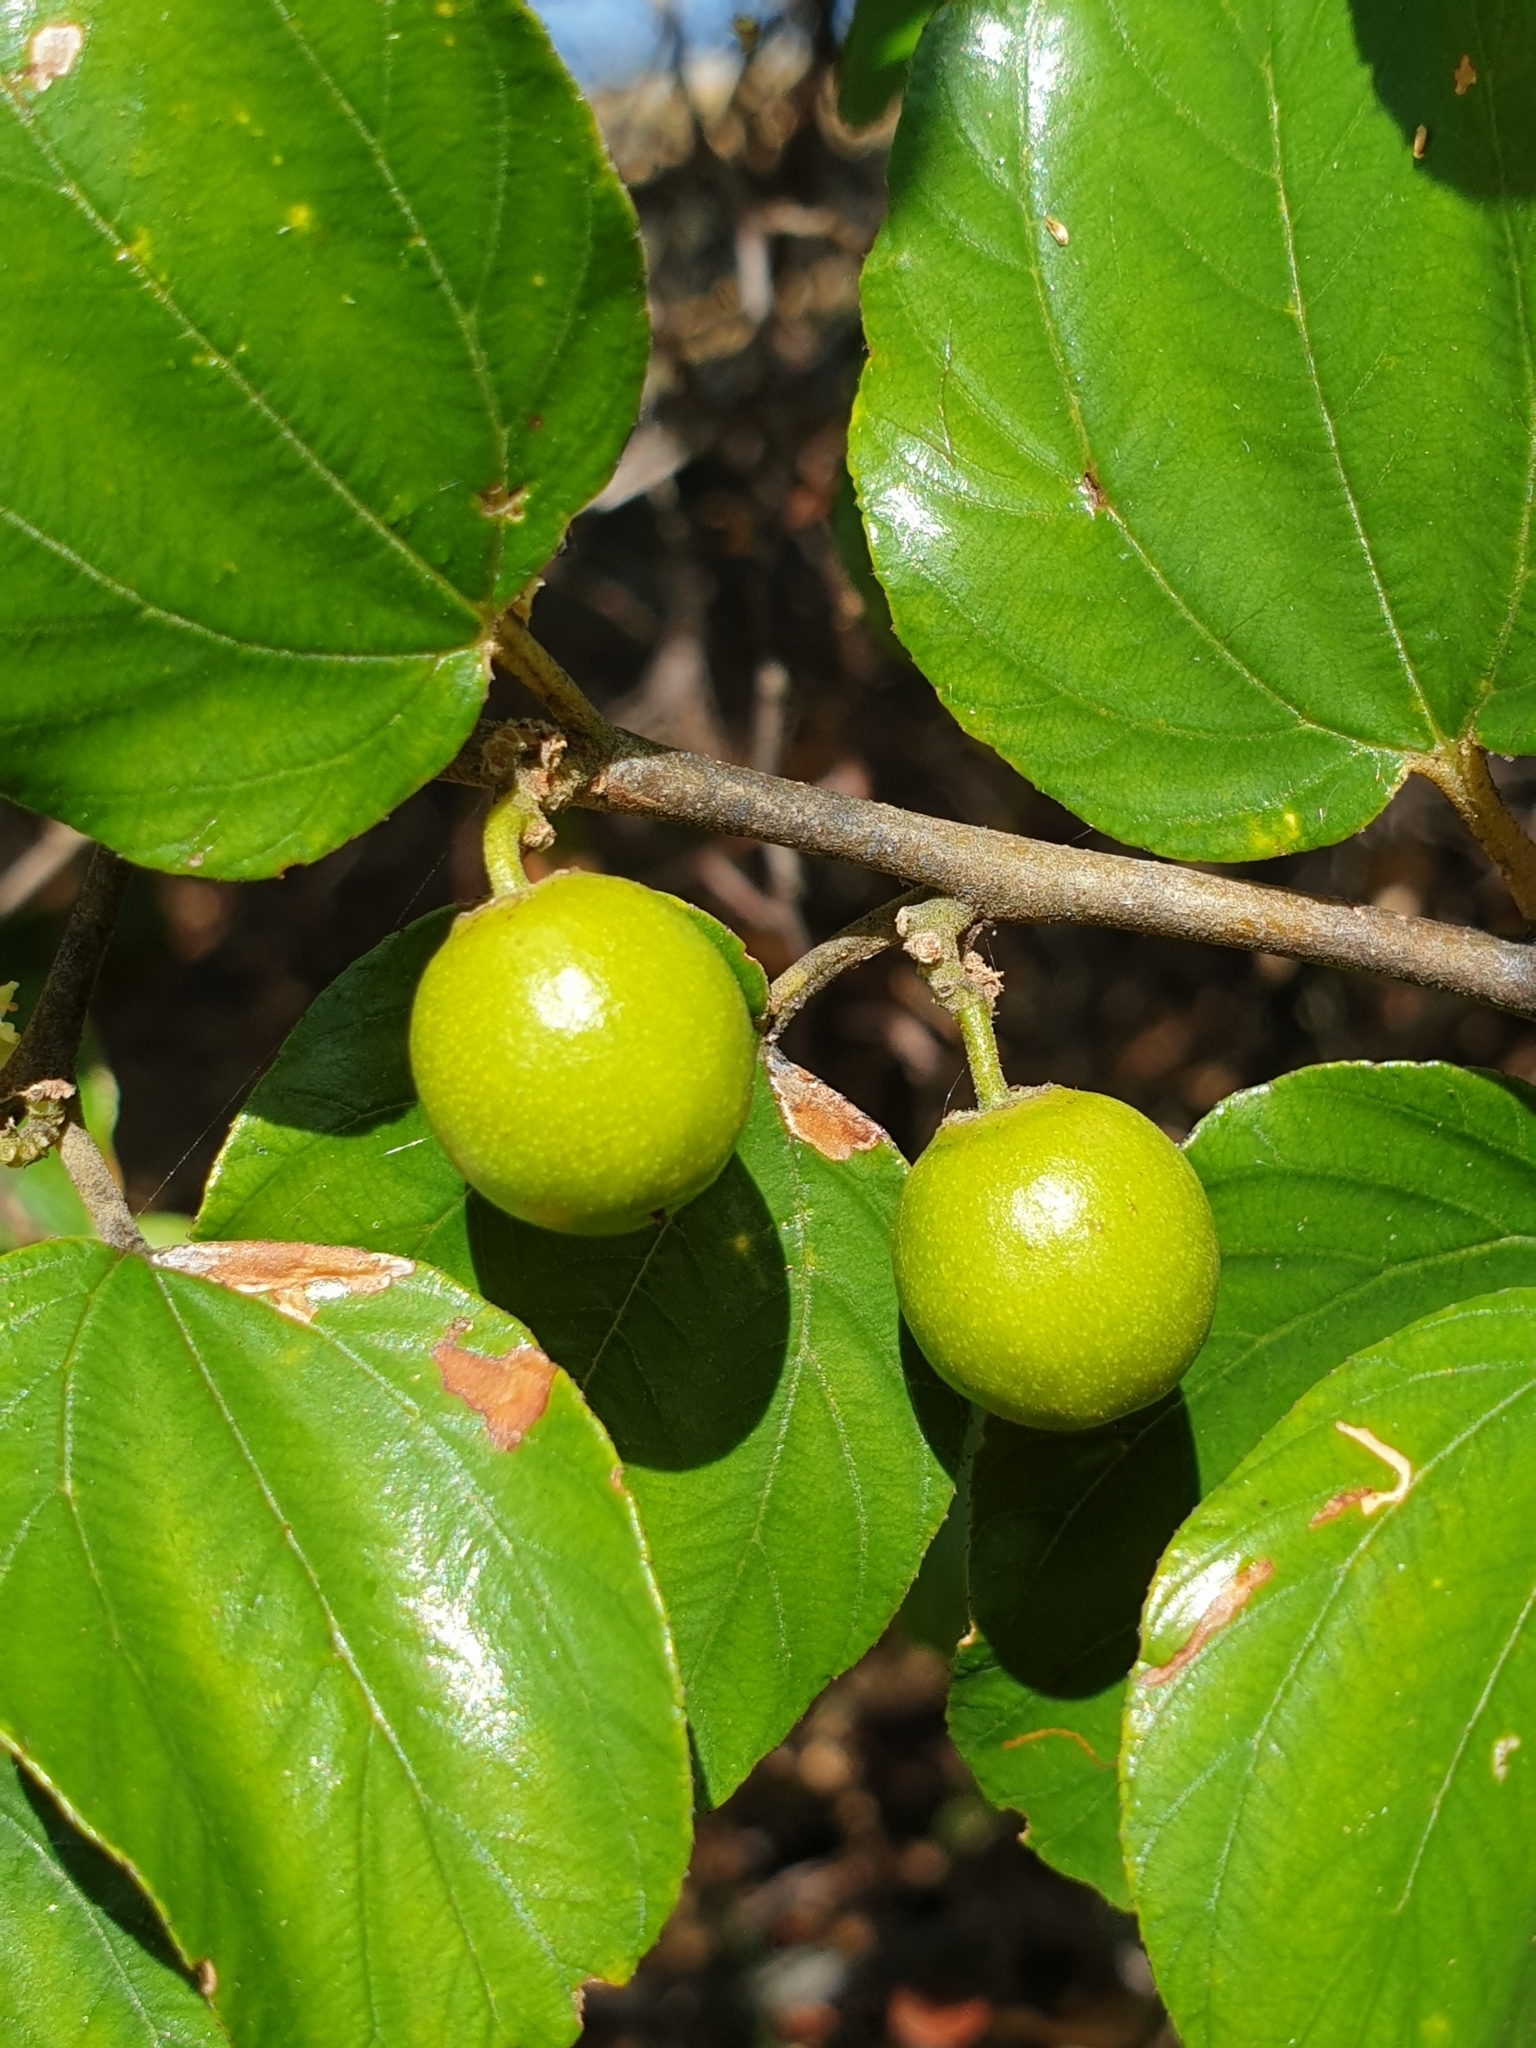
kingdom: Plantae
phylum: Tracheophyta
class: Magnoliopsida
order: Rosales
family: Rhamnaceae
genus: Ziziphus
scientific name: Ziziphus mauritiana
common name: Indian jujube
